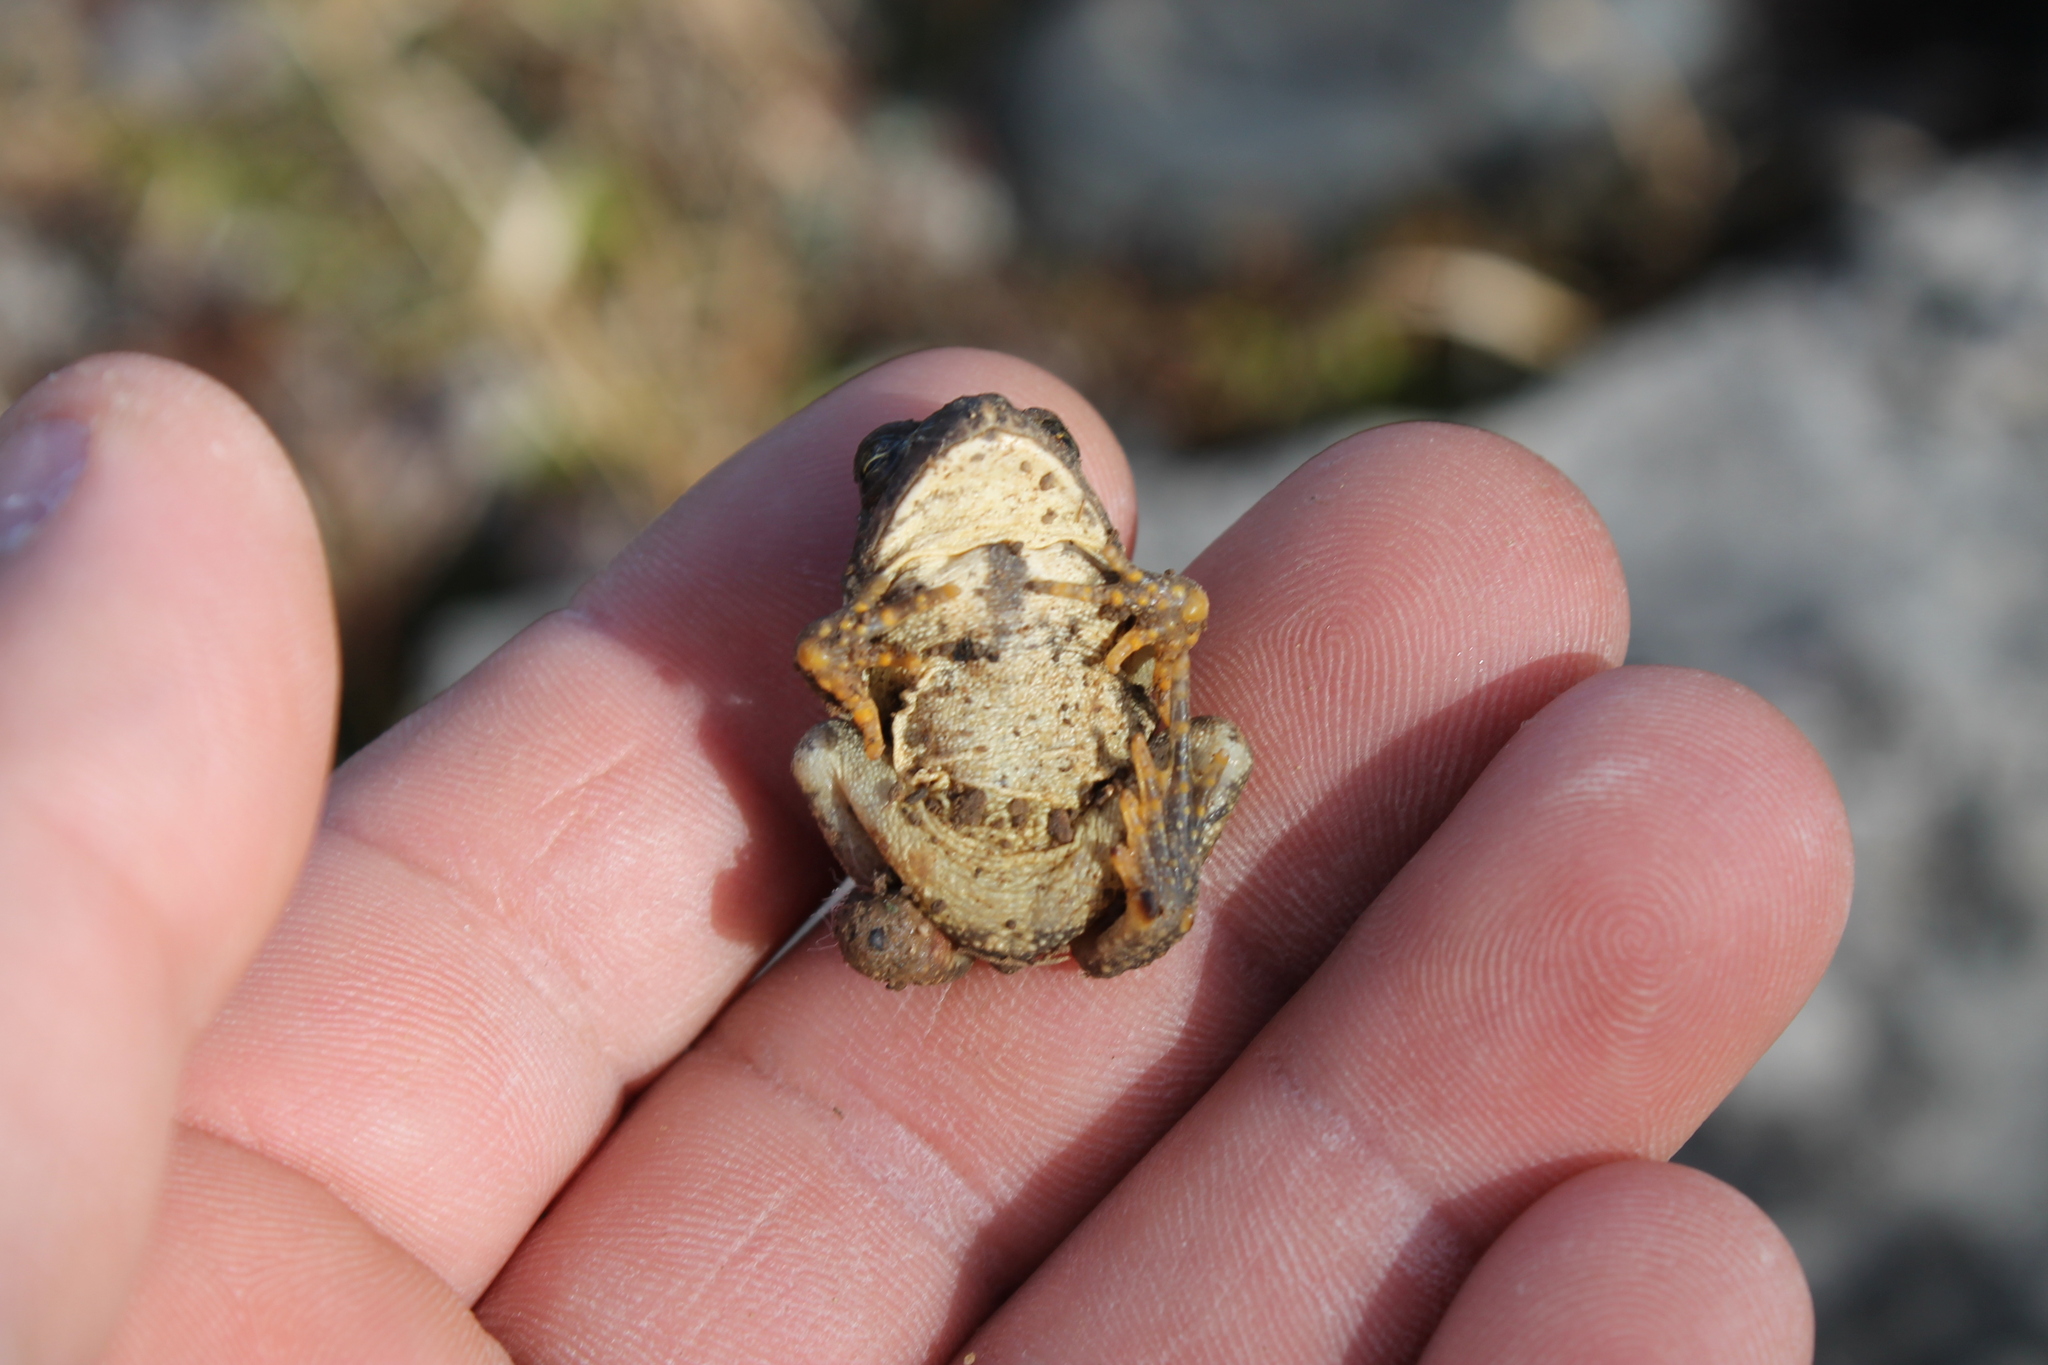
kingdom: Animalia
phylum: Chordata
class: Amphibia
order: Anura
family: Bufonidae
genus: Anaxyrus
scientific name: Anaxyrus fowleri
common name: Fowler's toad
